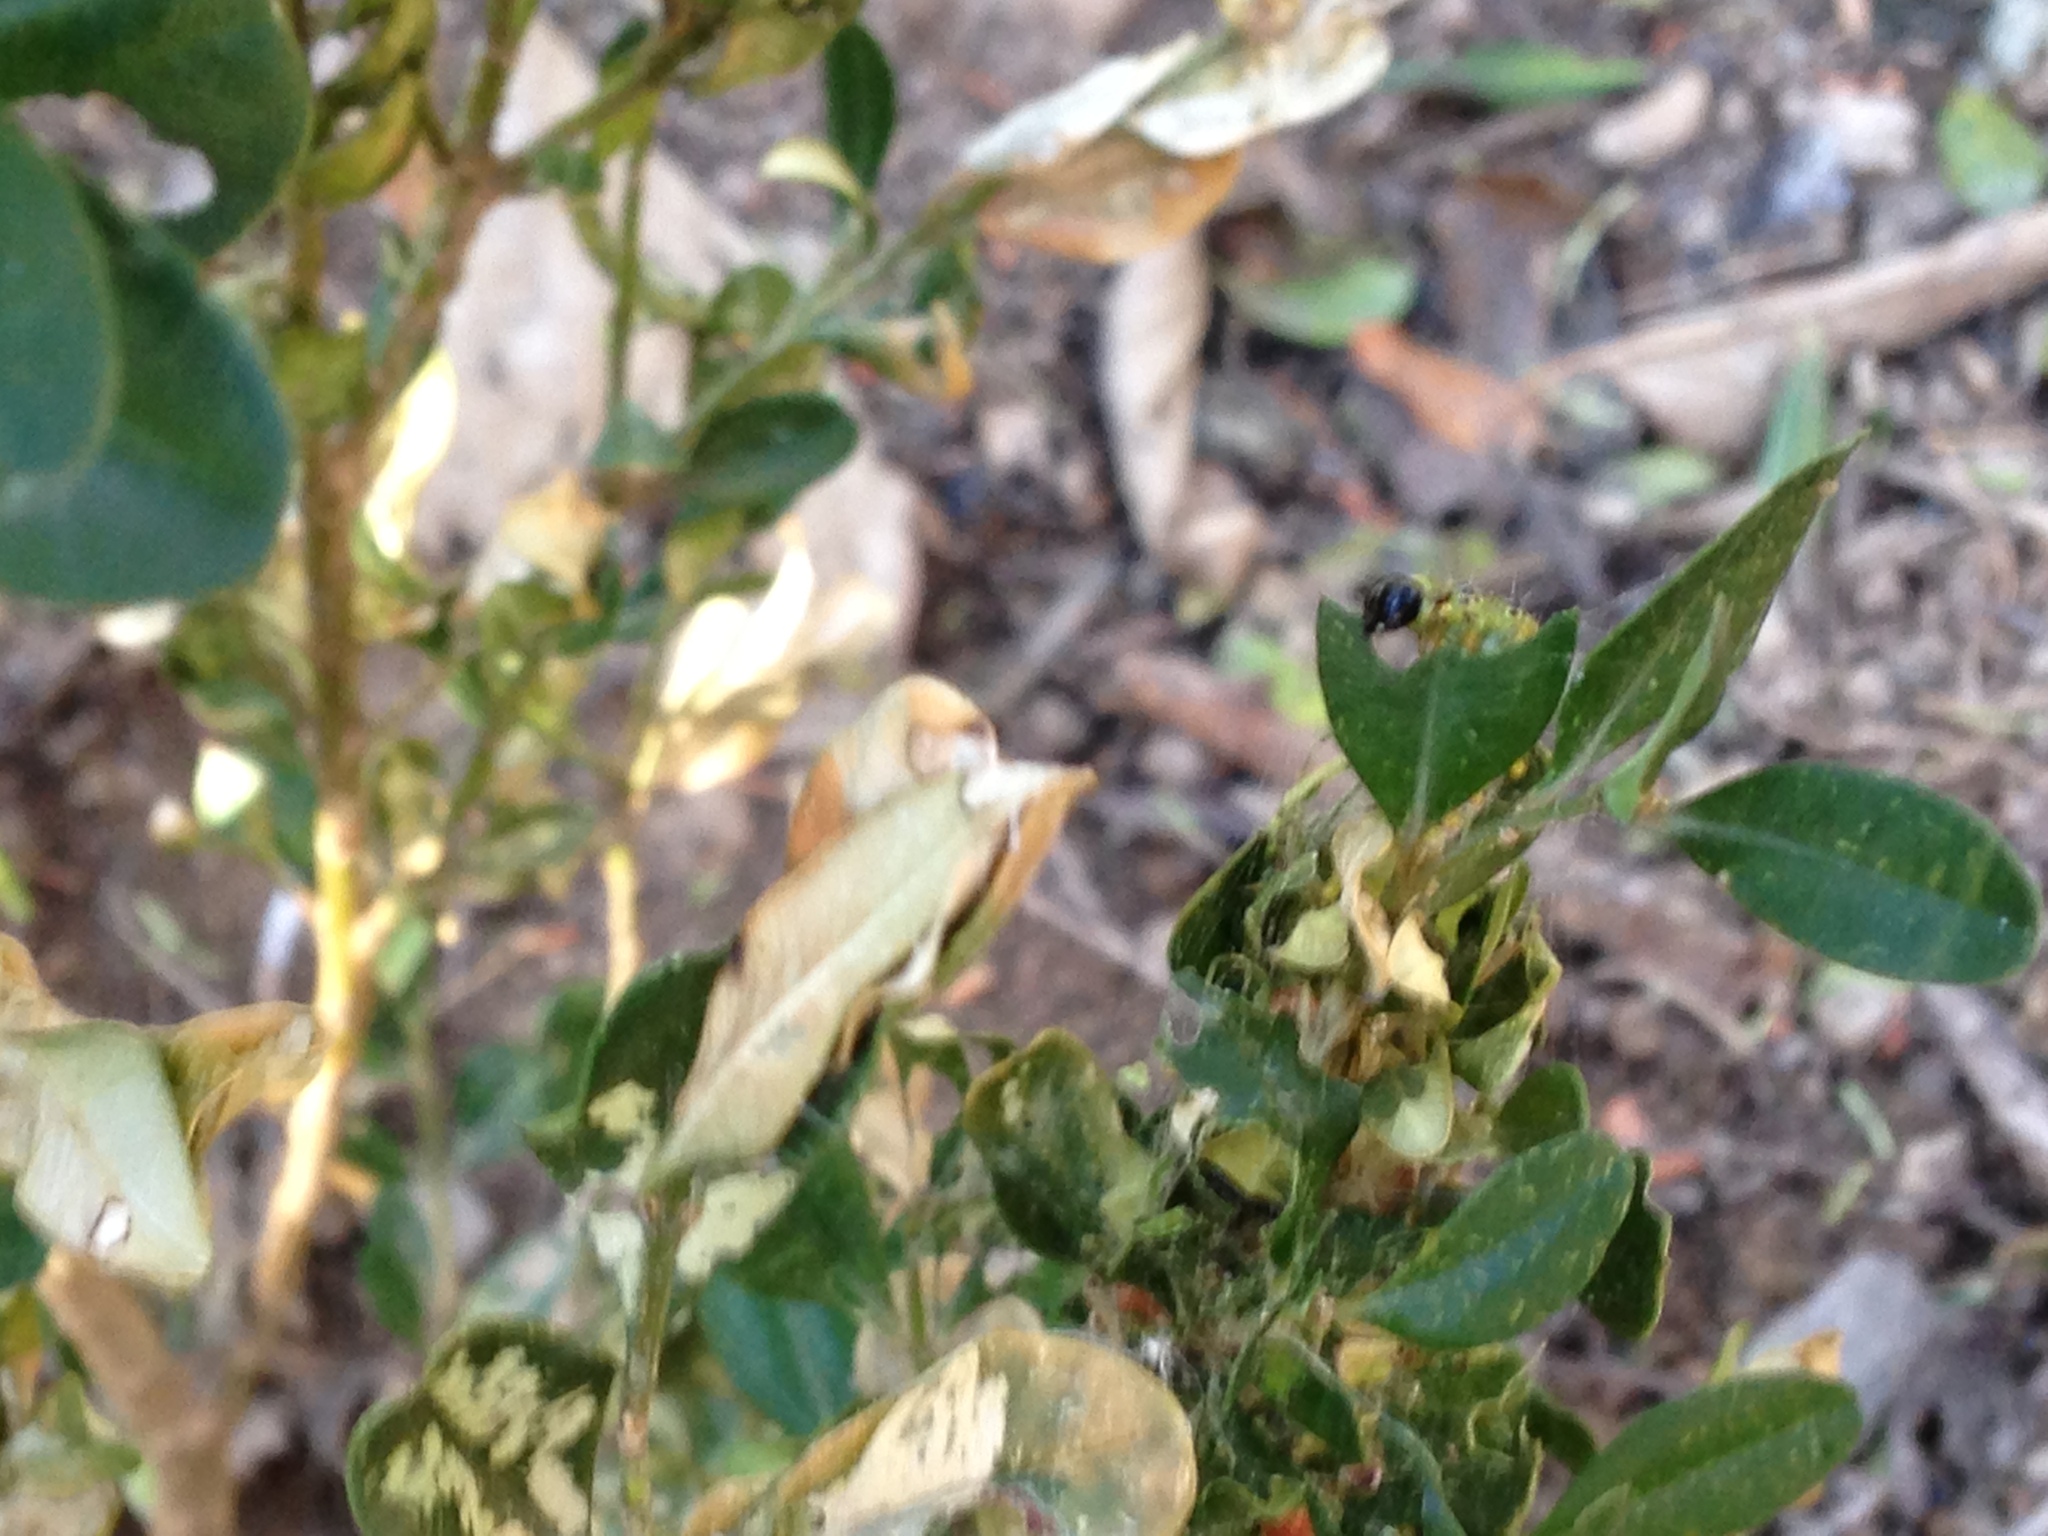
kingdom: Animalia
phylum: Arthropoda
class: Insecta
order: Lepidoptera
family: Crambidae
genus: Cydalima
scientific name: Cydalima perspectalis
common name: Box tree moth
